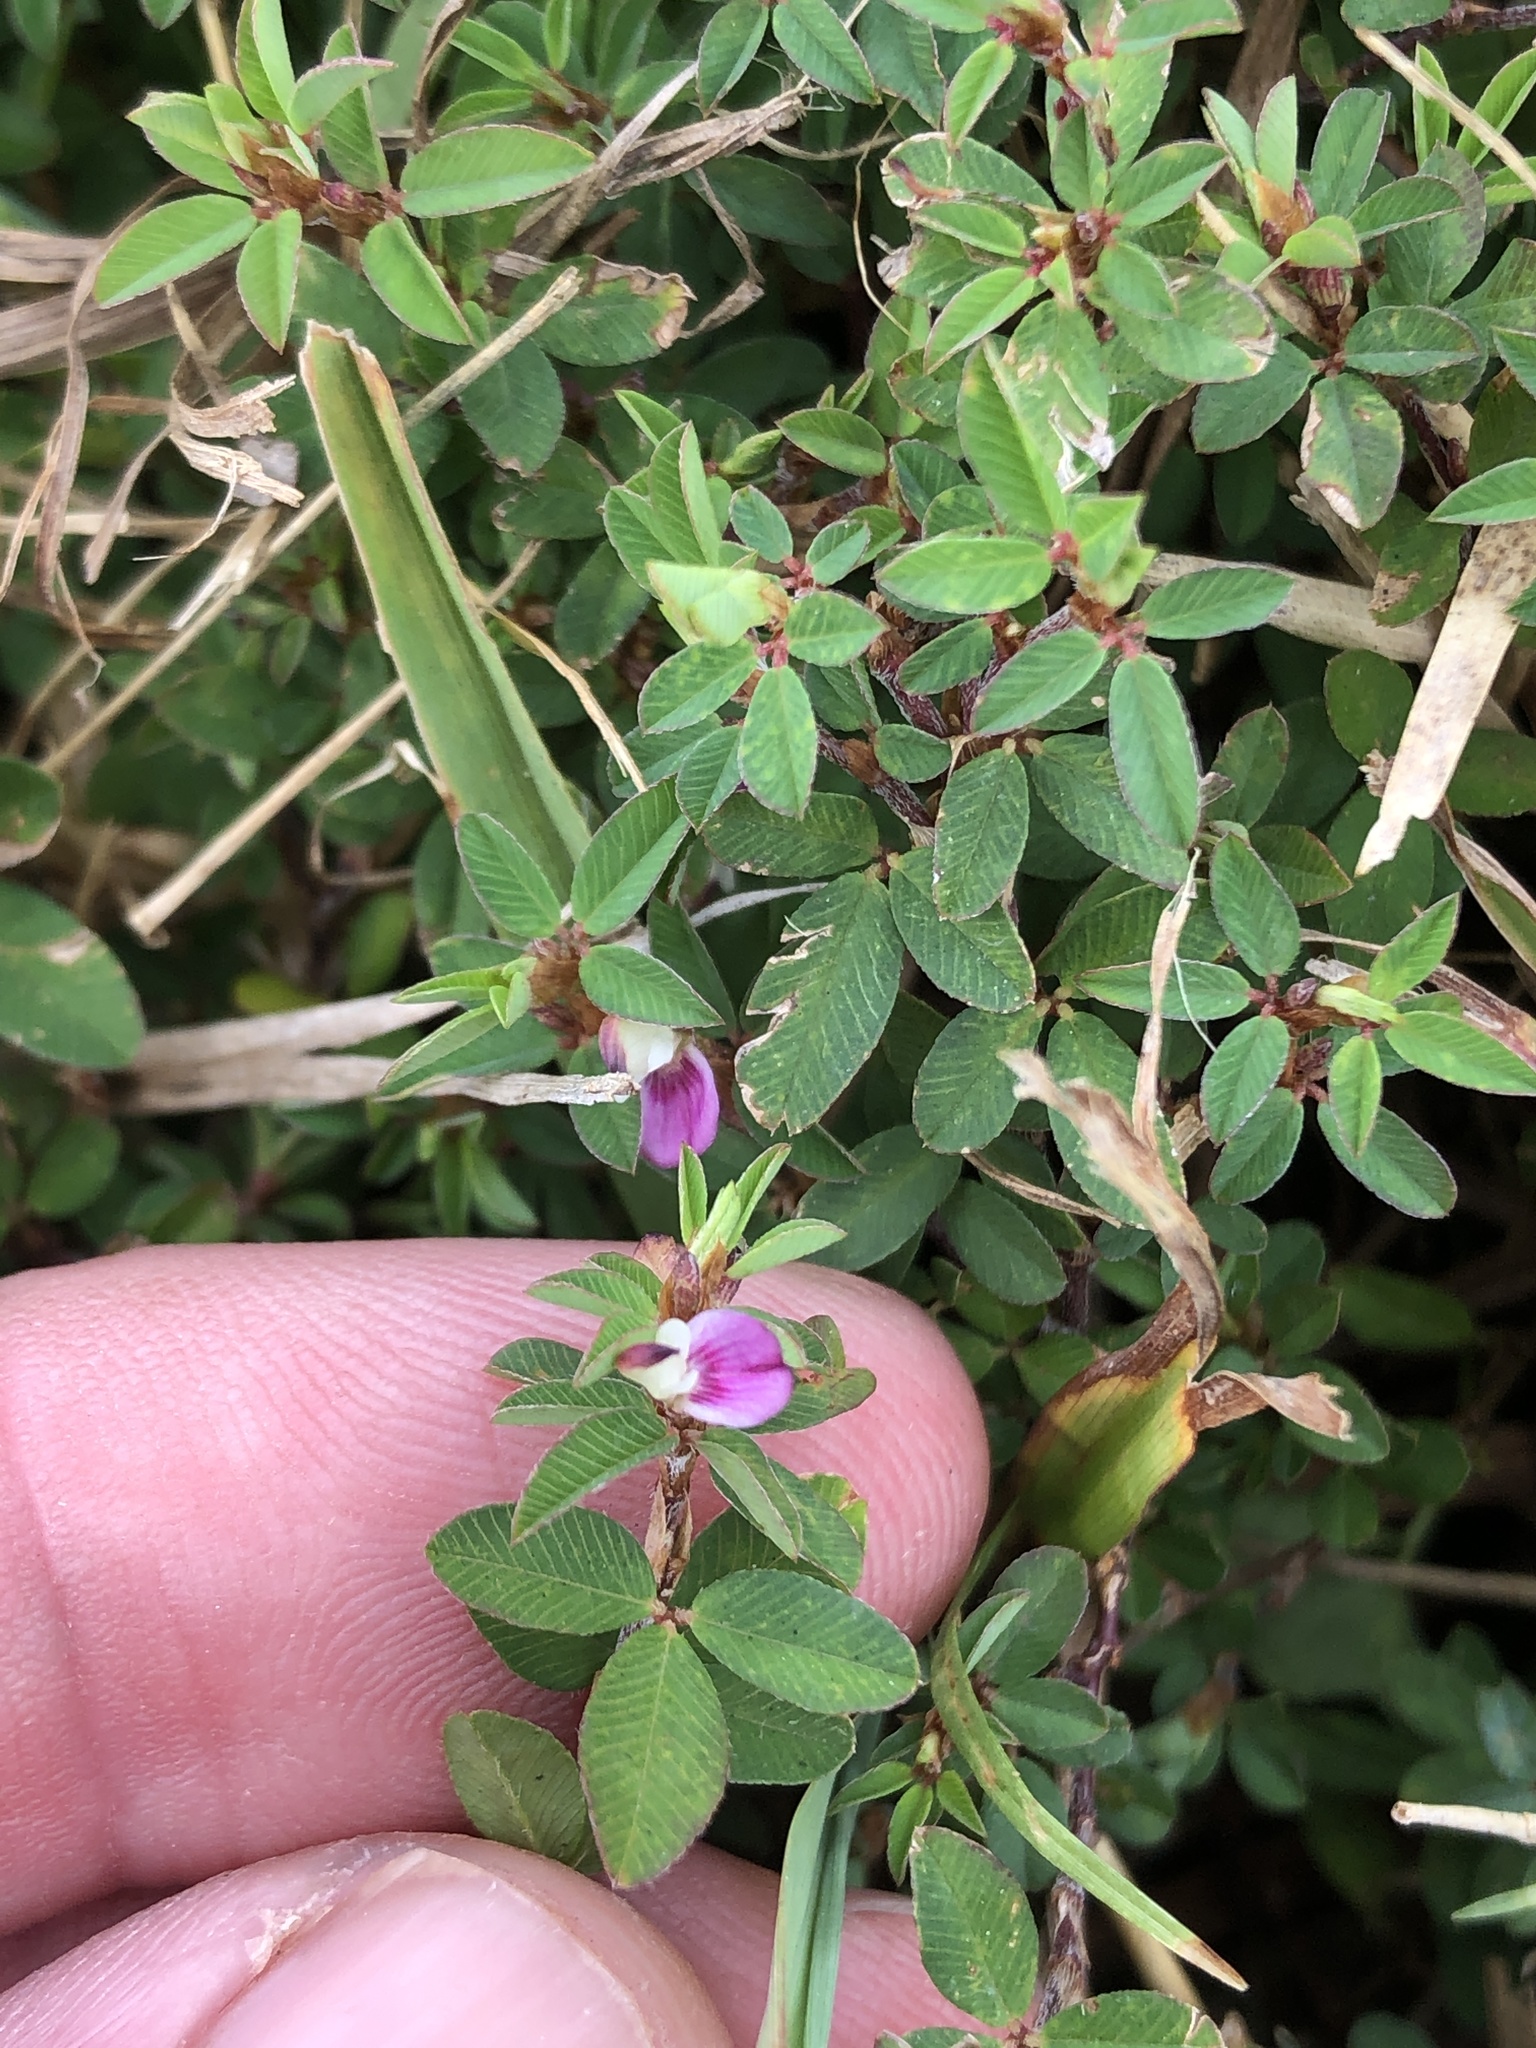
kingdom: Plantae
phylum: Tracheophyta
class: Magnoliopsida
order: Fabales
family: Fabaceae
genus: Kummerowia
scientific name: Kummerowia striata
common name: Japanese clover
